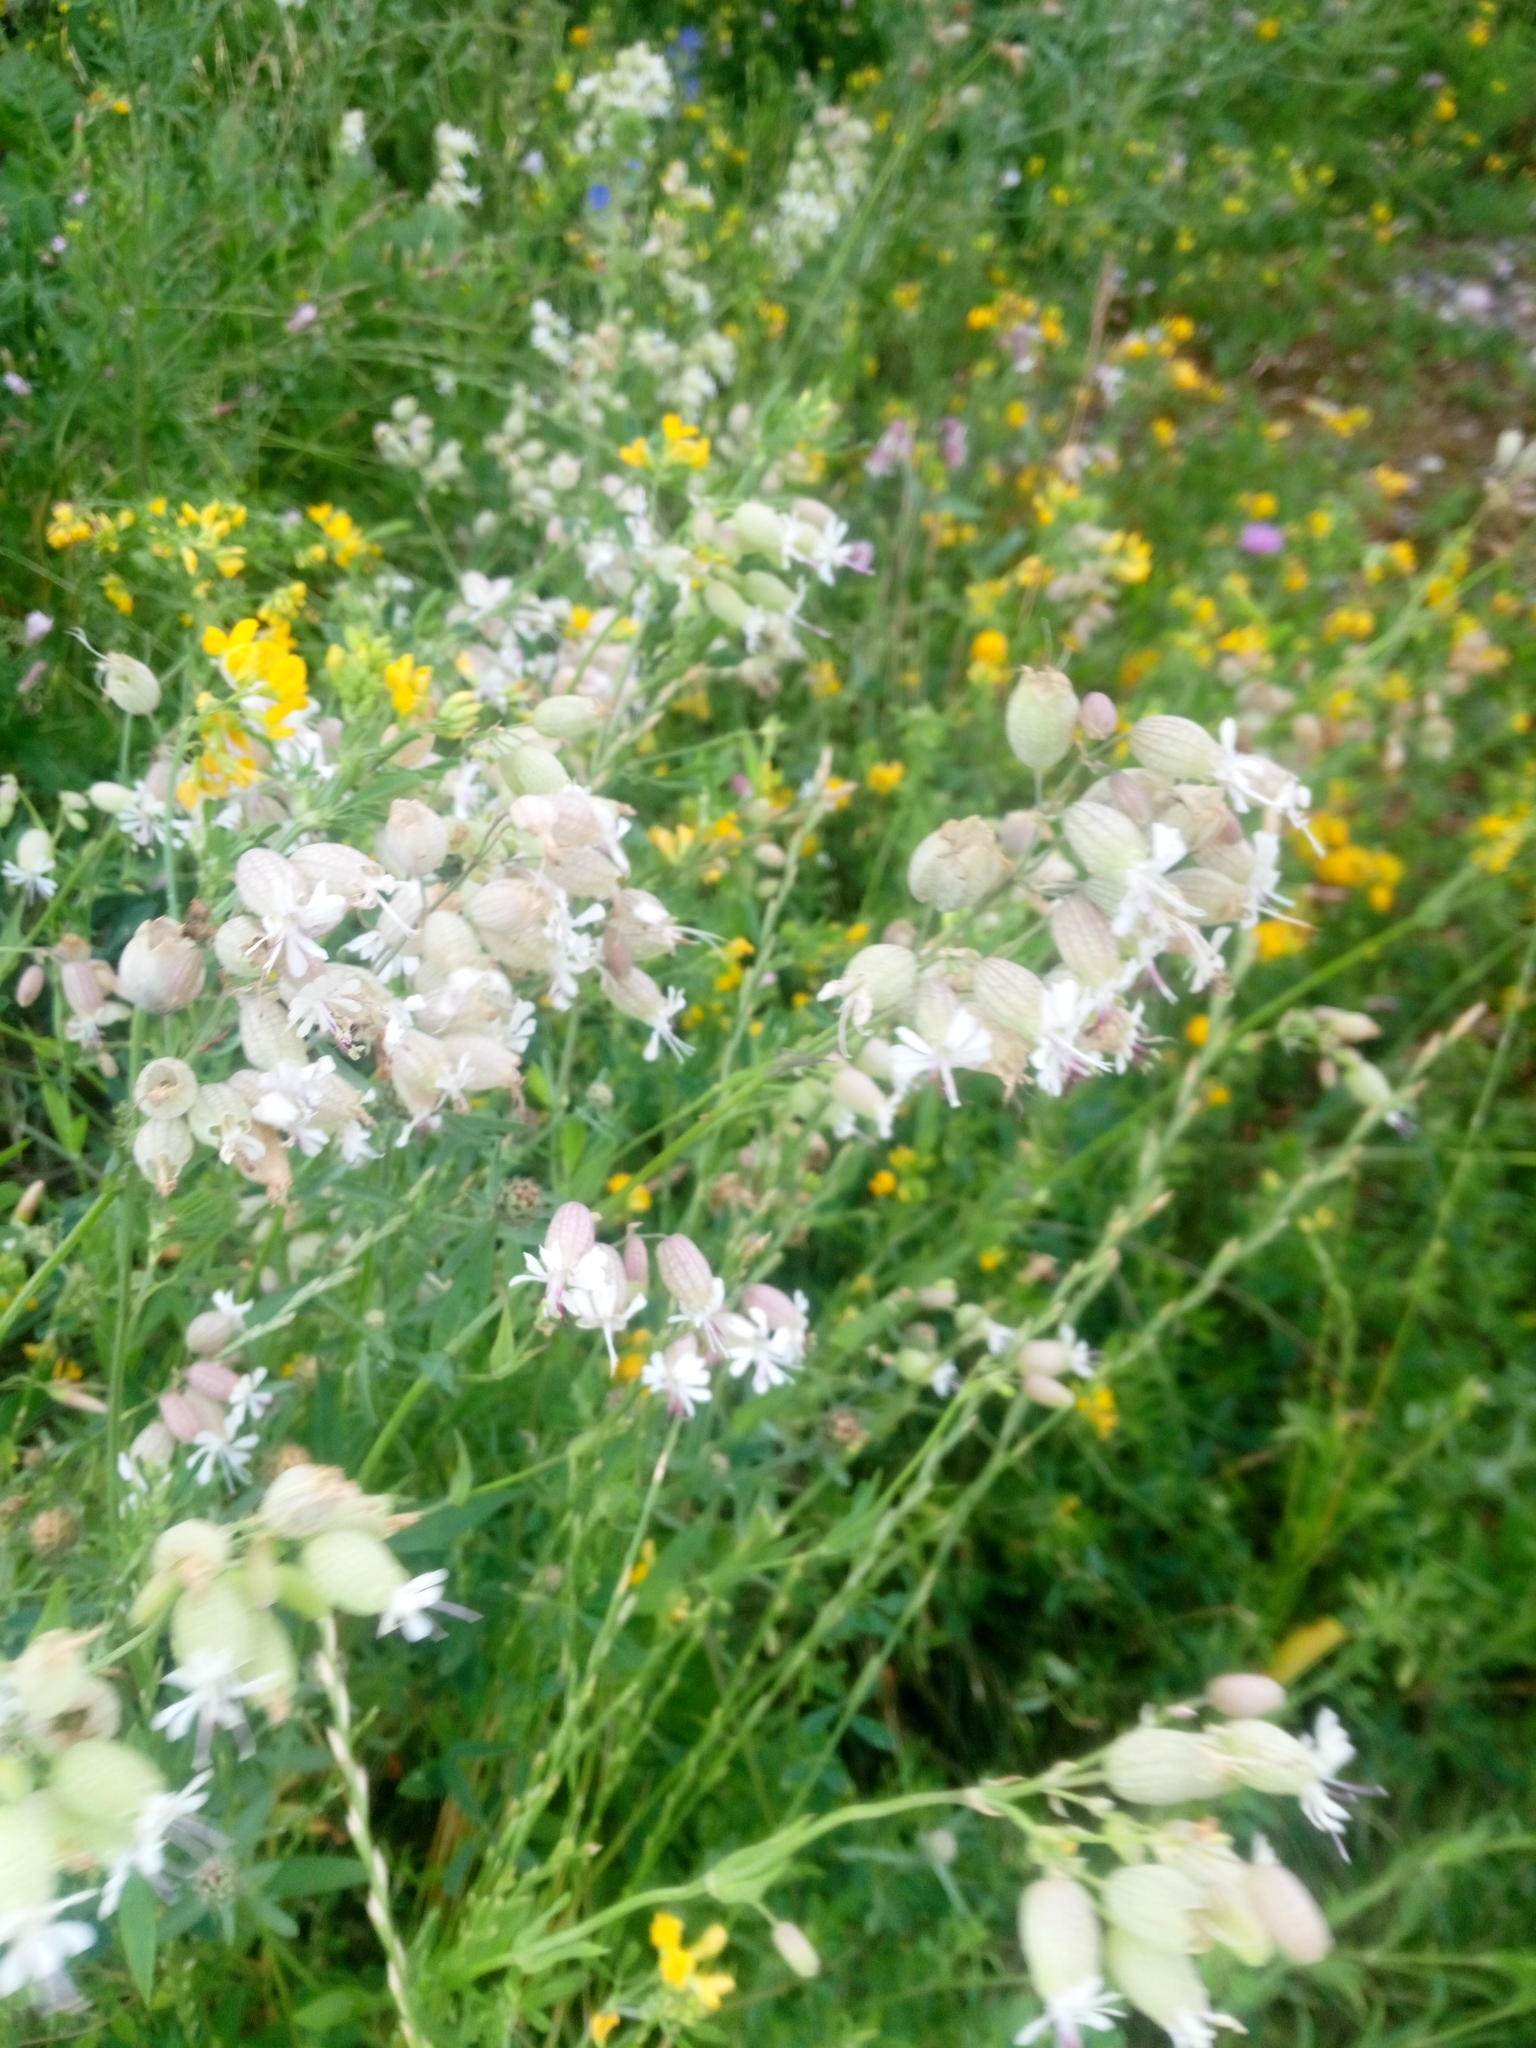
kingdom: Plantae
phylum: Tracheophyta
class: Magnoliopsida
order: Caryophyllales
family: Caryophyllaceae
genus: Silene
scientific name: Silene vulgaris
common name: Bladder campion
